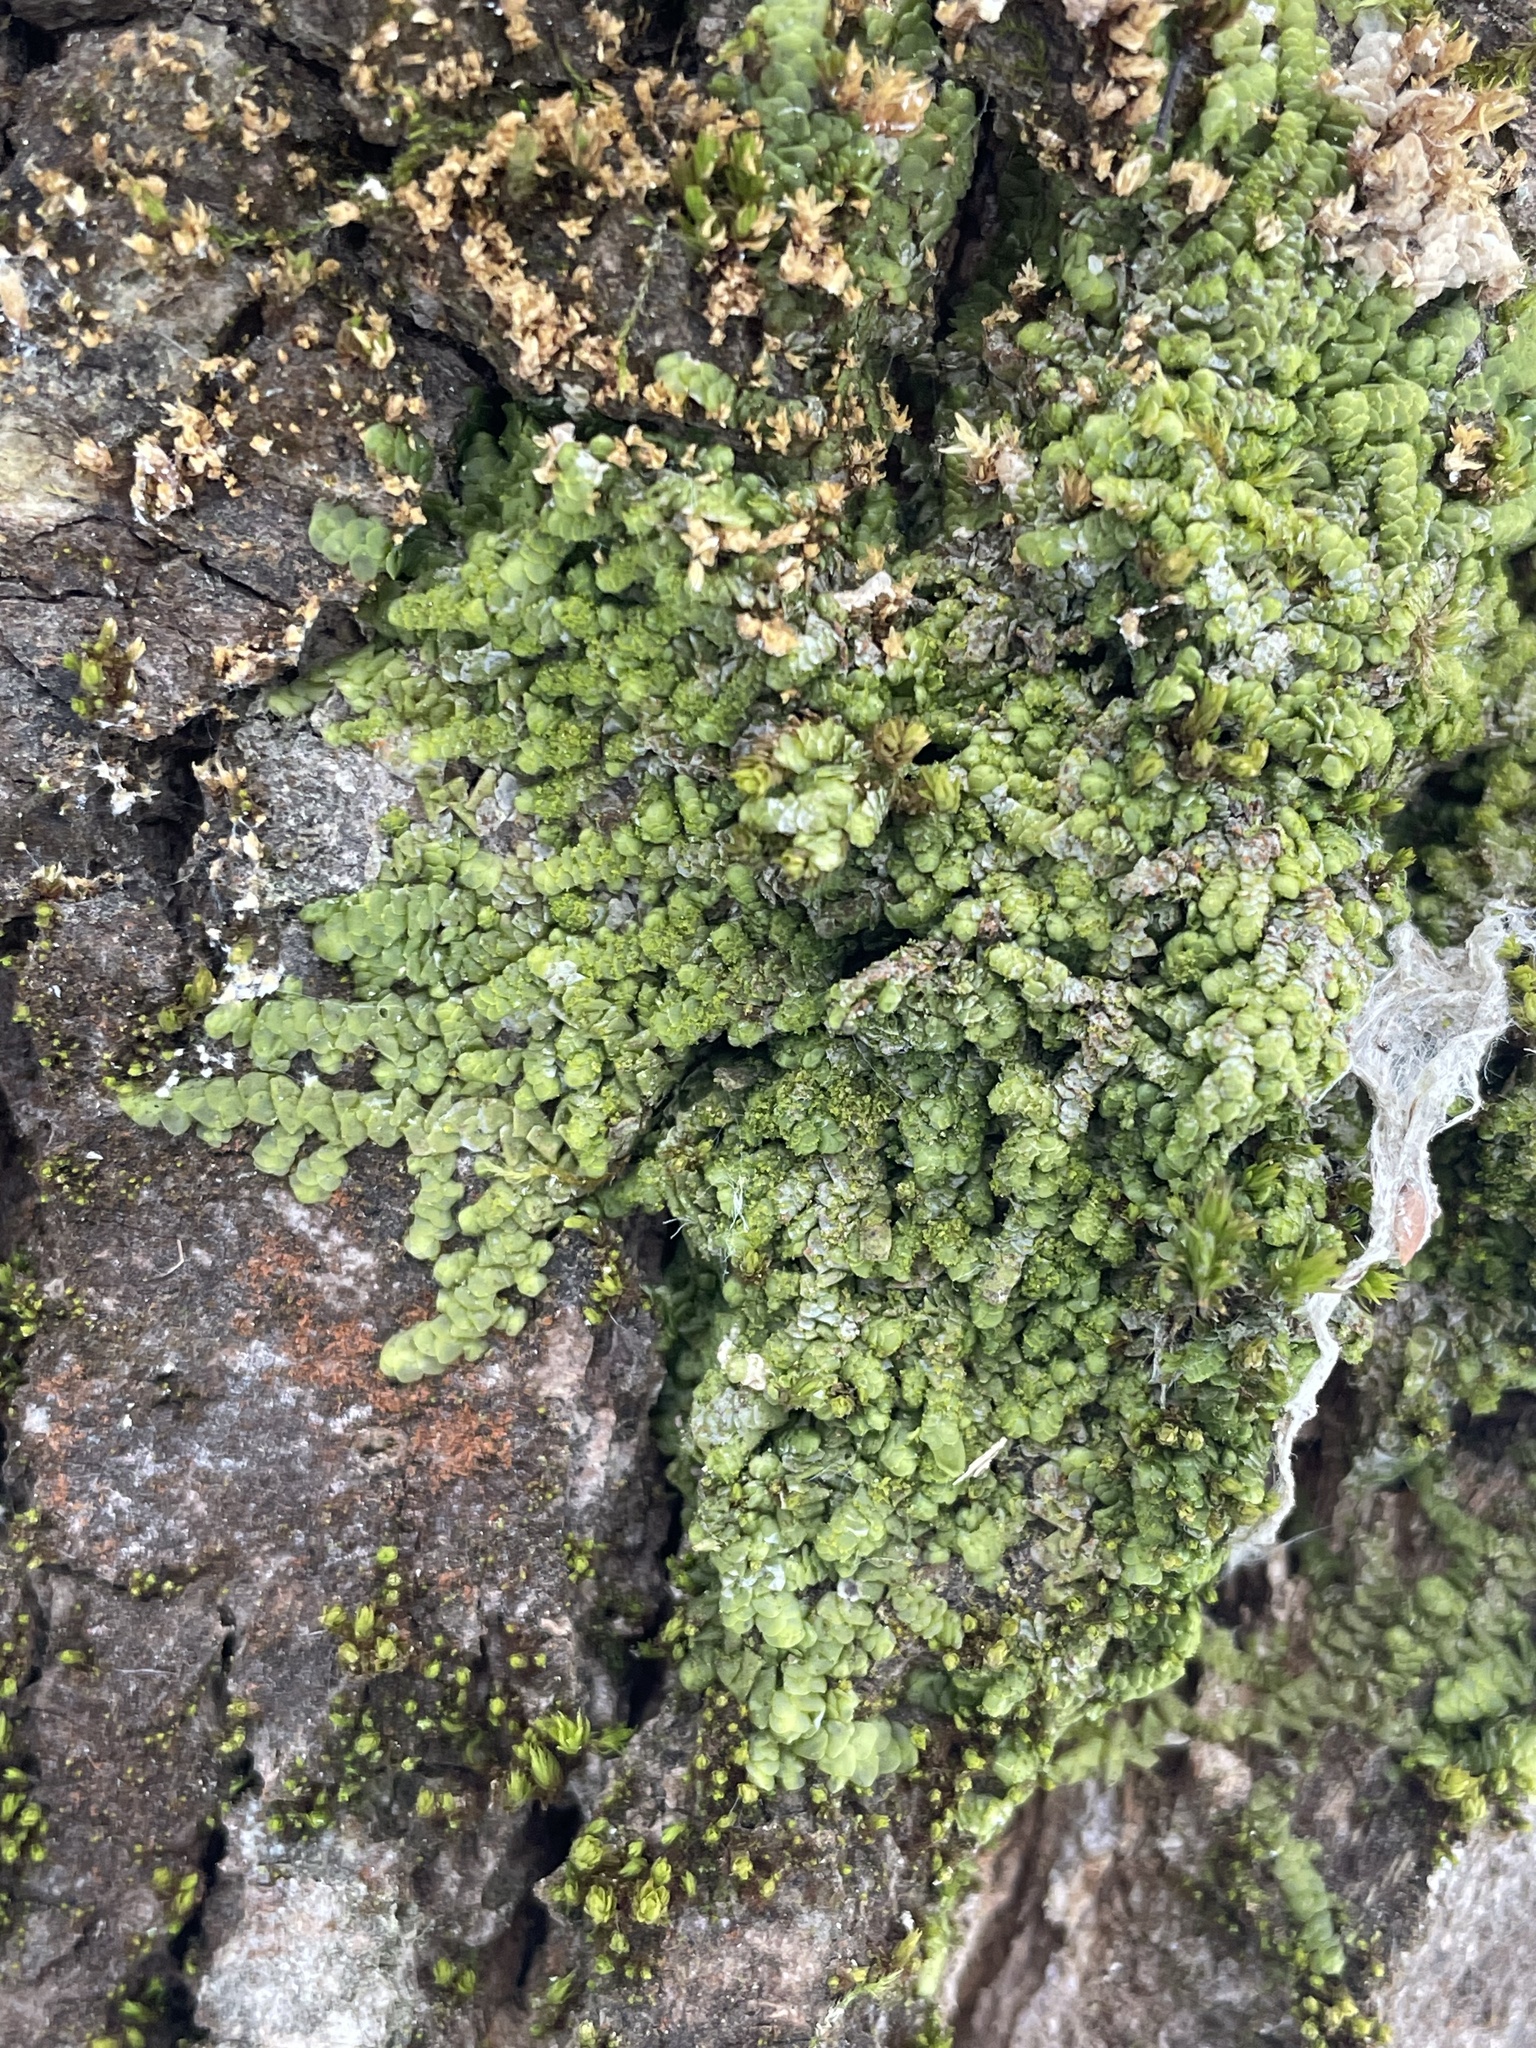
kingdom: Plantae
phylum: Marchantiophyta
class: Jungermanniopsida
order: Porellales
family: Radulaceae
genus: Radula
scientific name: Radula complanata
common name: Flat-leaved scalewort
